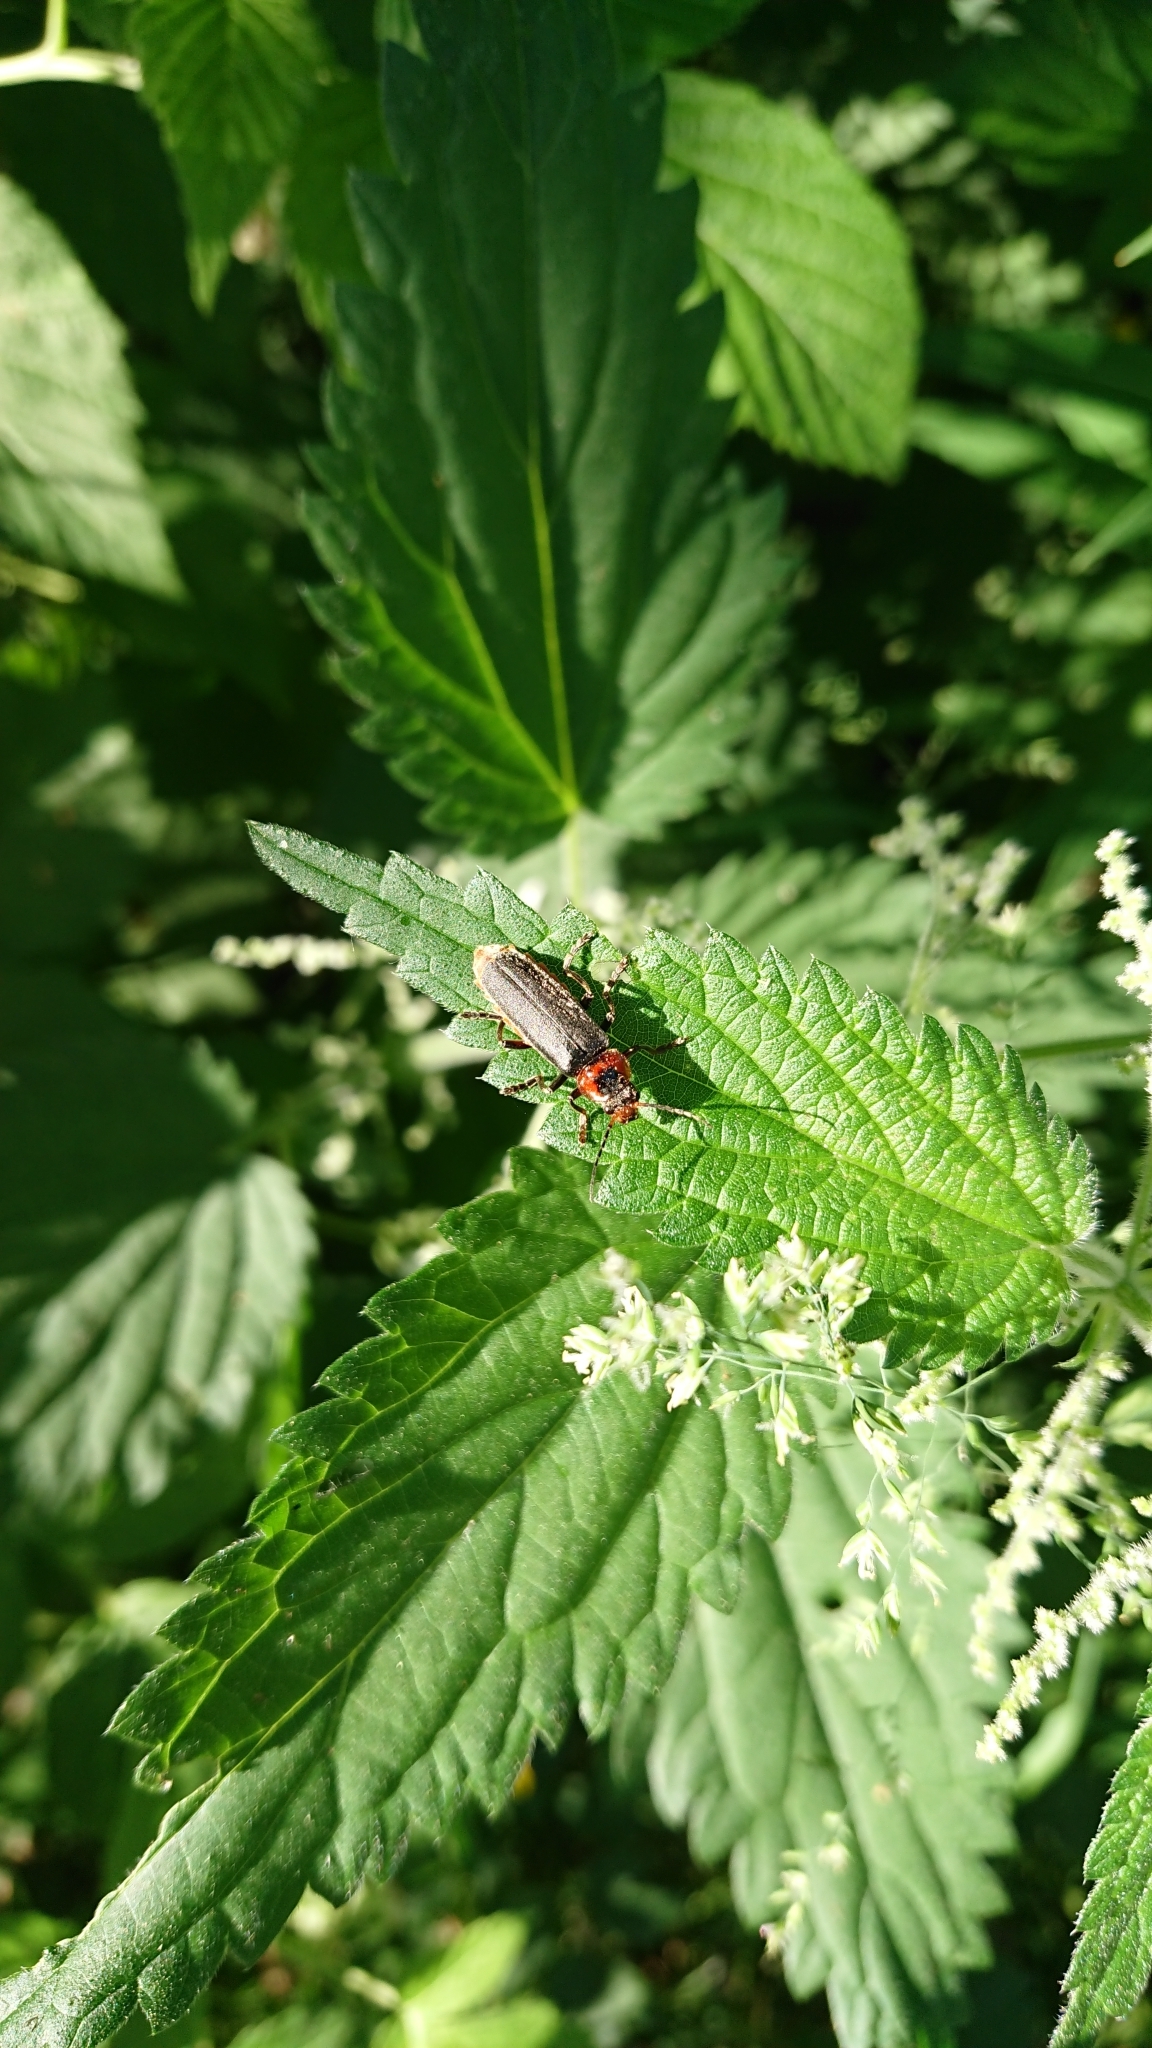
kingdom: Animalia
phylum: Arthropoda
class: Insecta
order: Coleoptera
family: Cantharidae
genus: Cantharis
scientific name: Cantharis fusca
